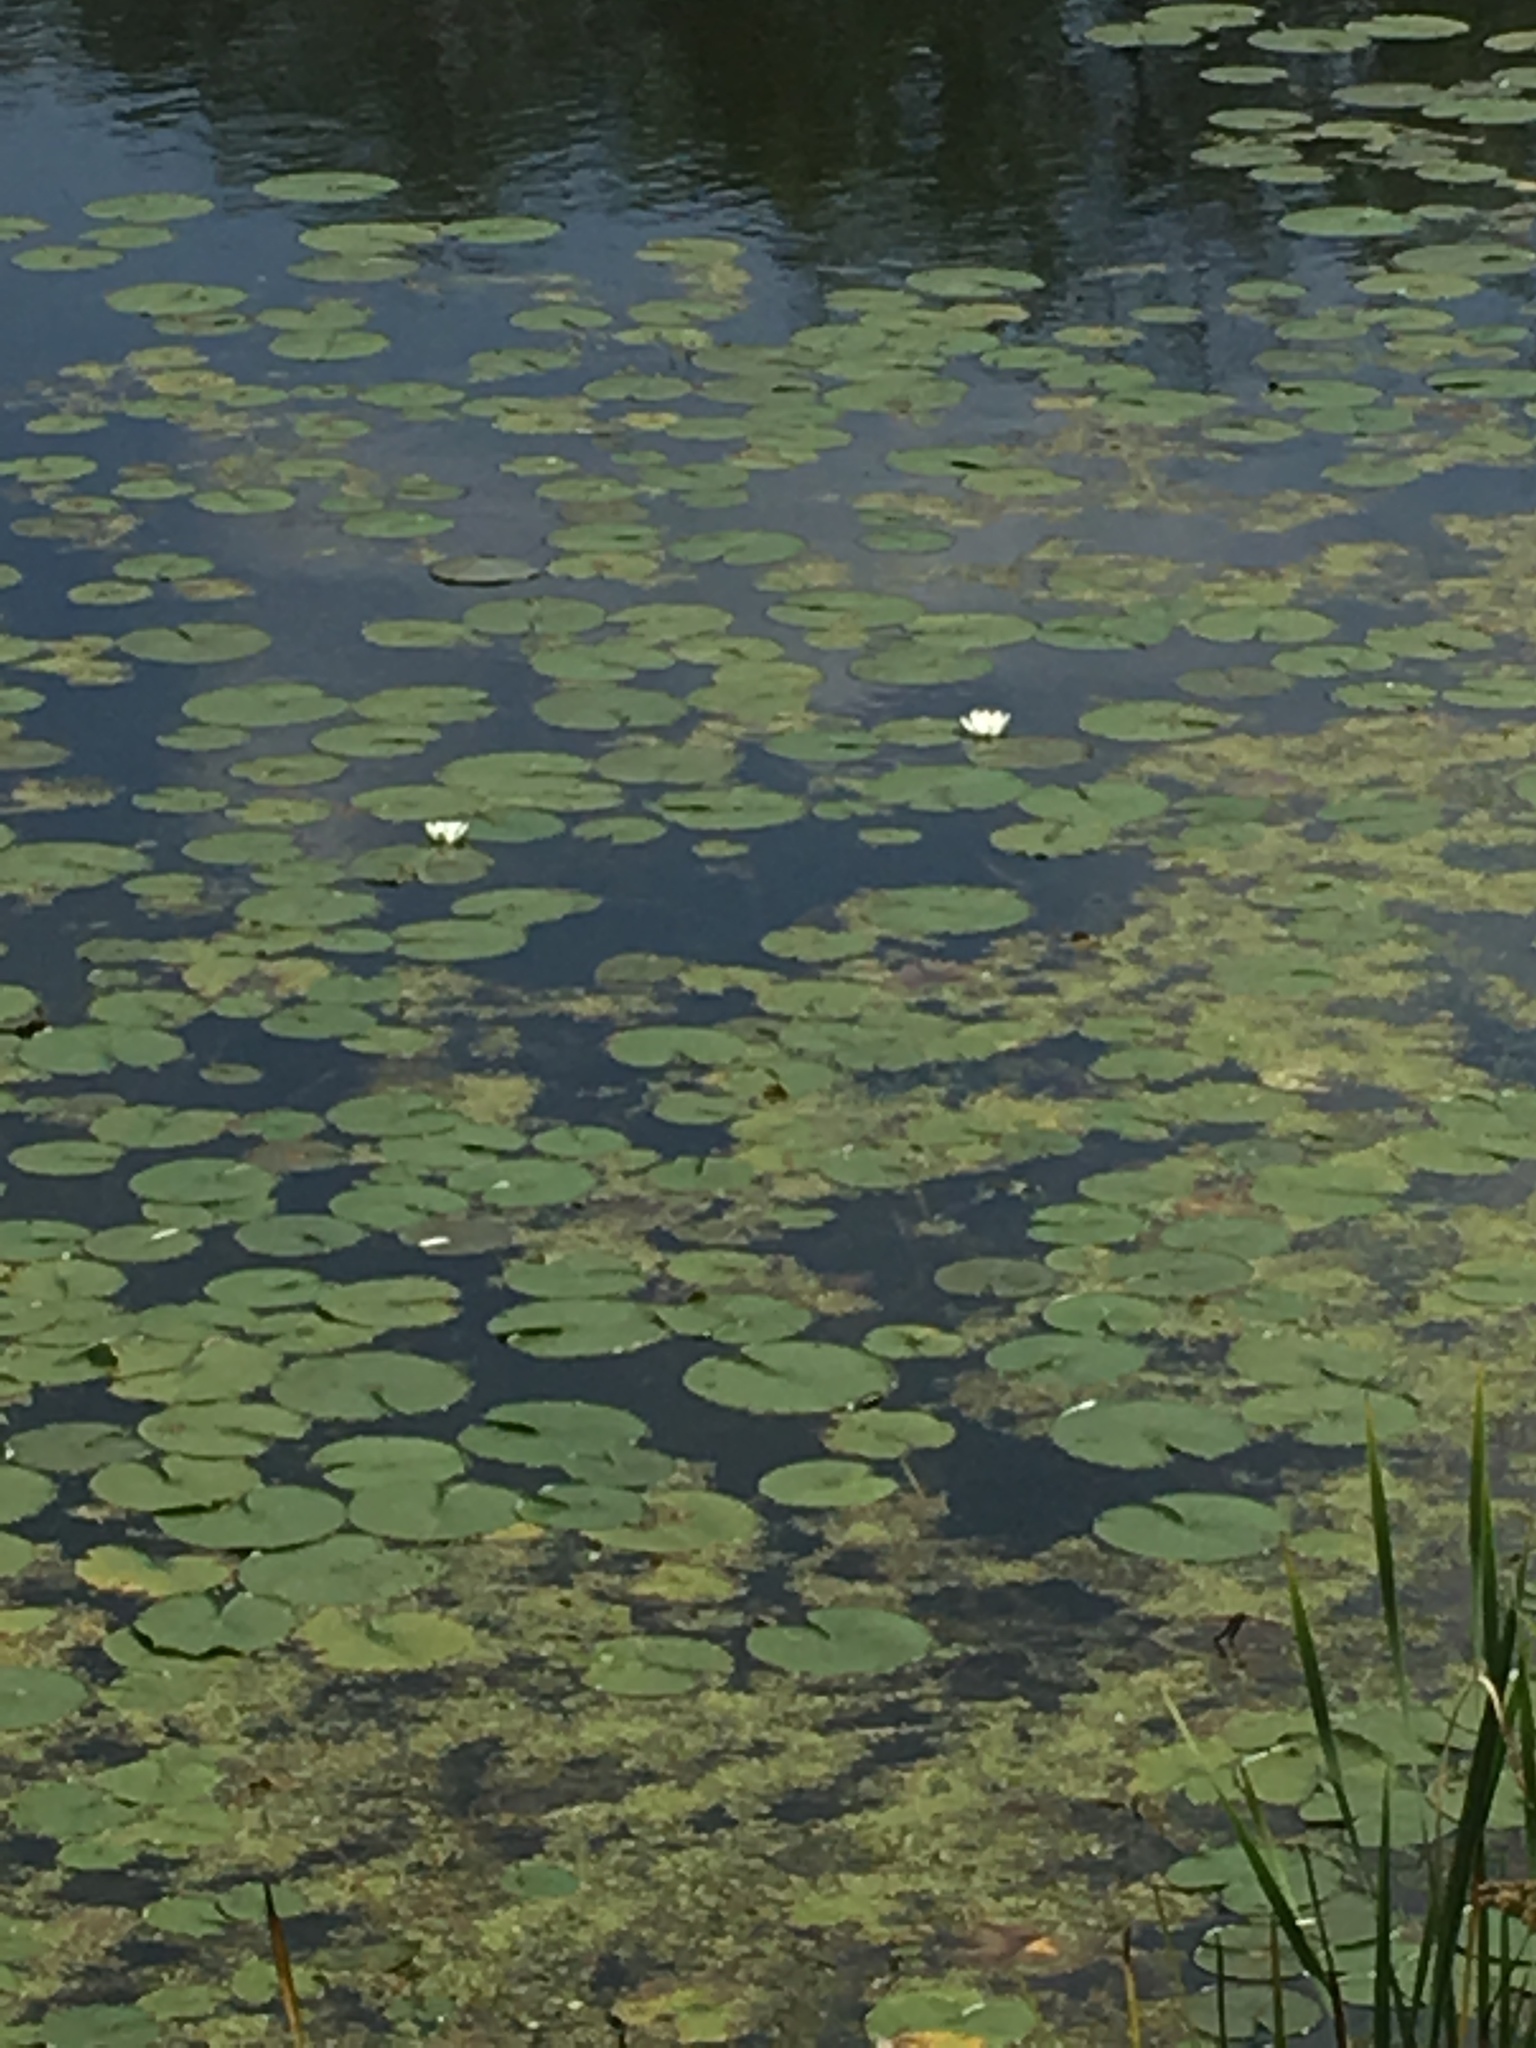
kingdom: Plantae
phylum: Tracheophyta
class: Magnoliopsida
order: Nymphaeales
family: Nymphaeaceae
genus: Nymphaea
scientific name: Nymphaea odorata
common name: Fragrant water-lily
